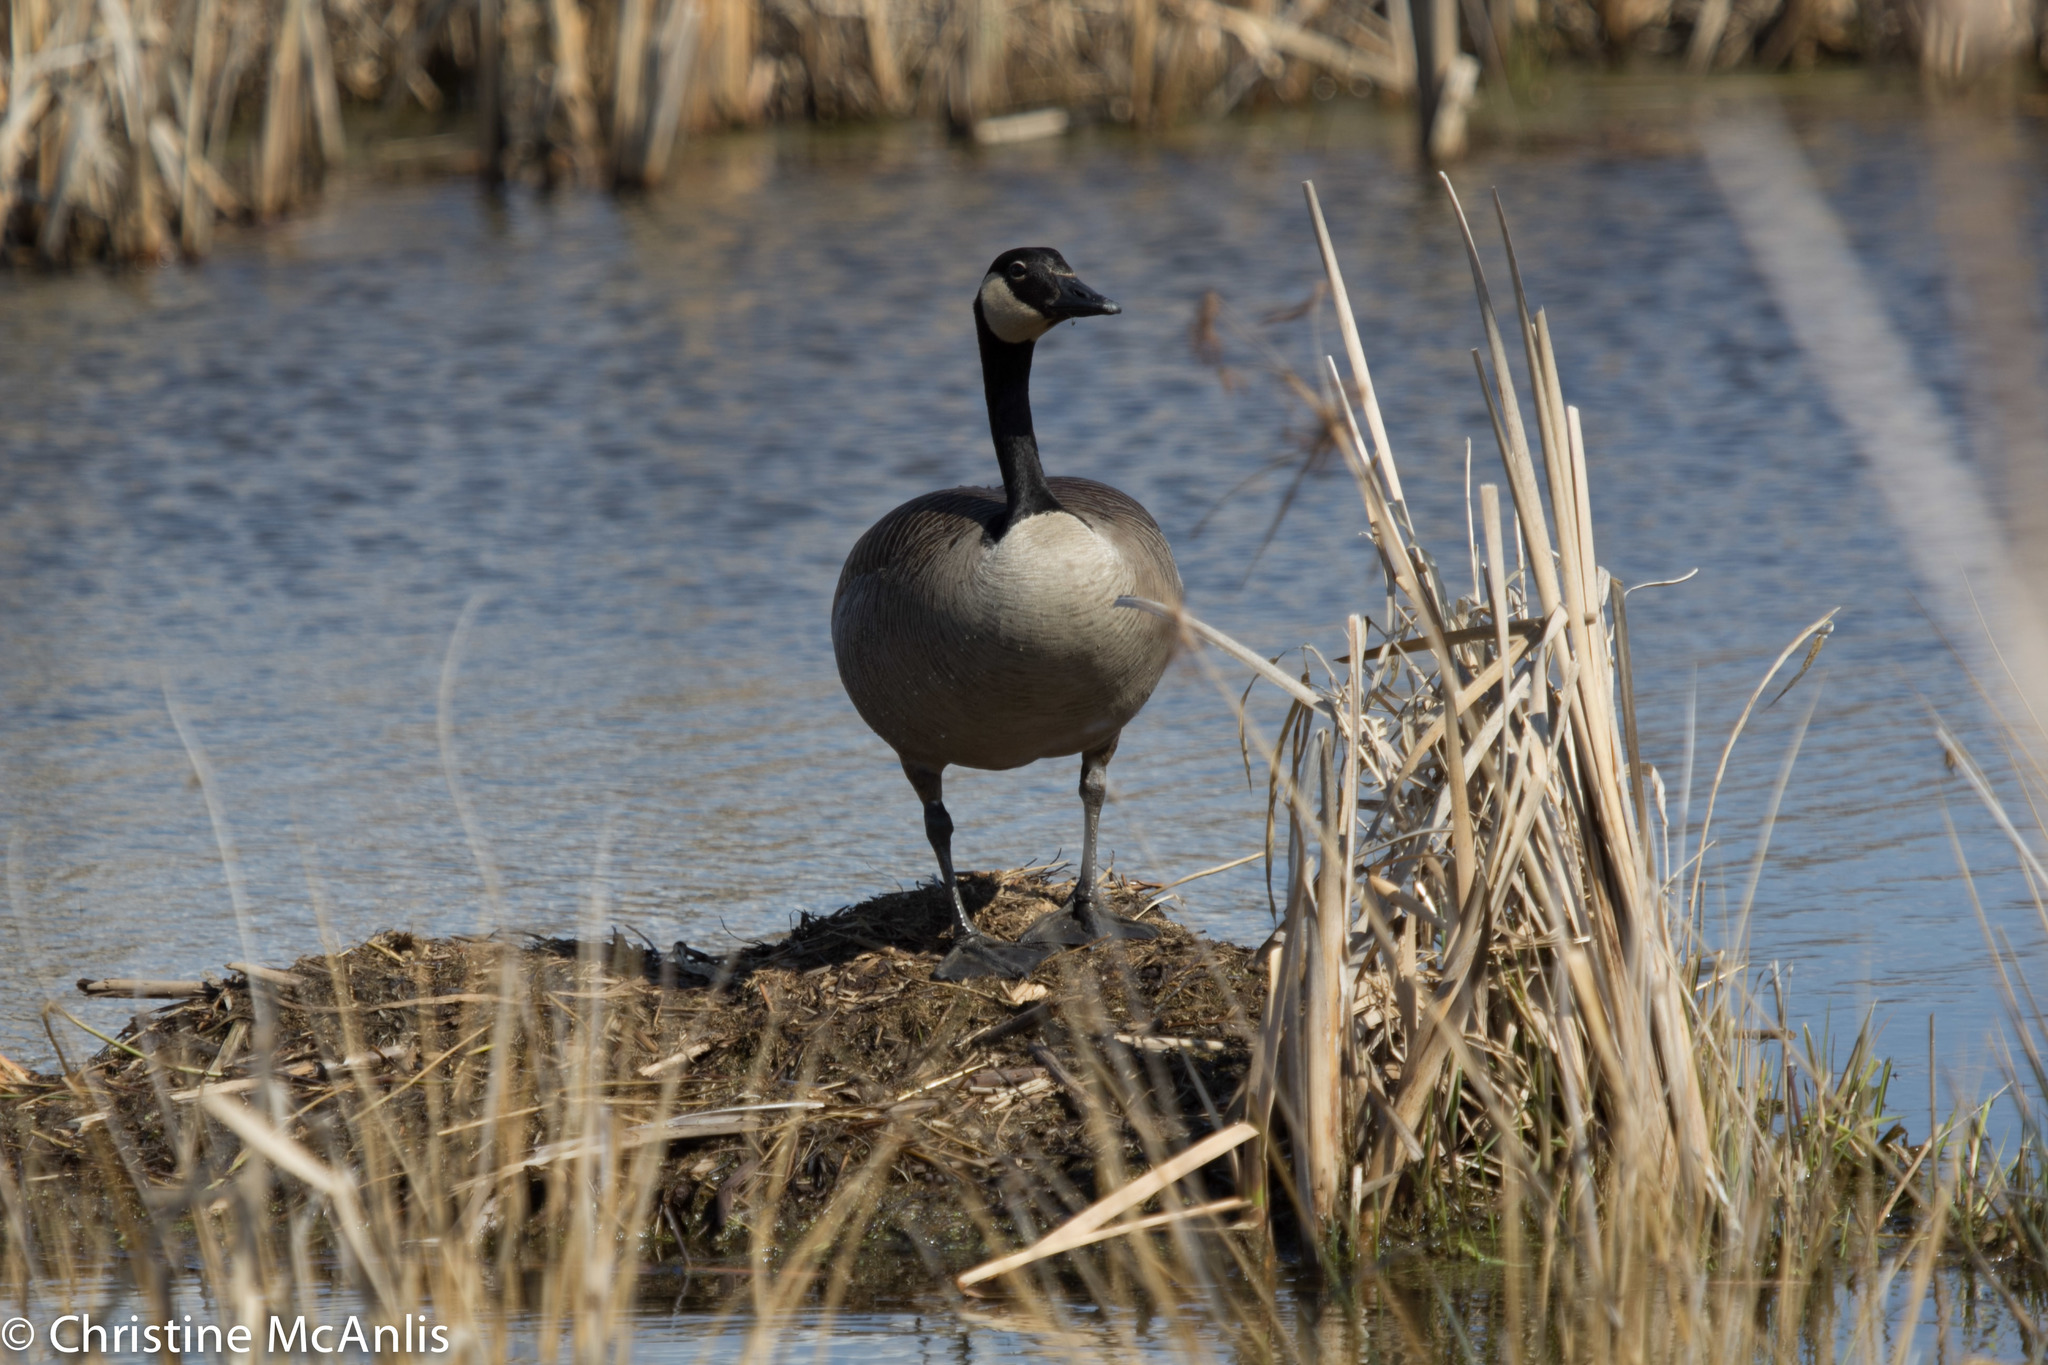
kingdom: Animalia
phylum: Chordata
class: Aves
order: Anseriformes
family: Anatidae
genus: Branta
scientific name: Branta canadensis
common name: Canada goose
